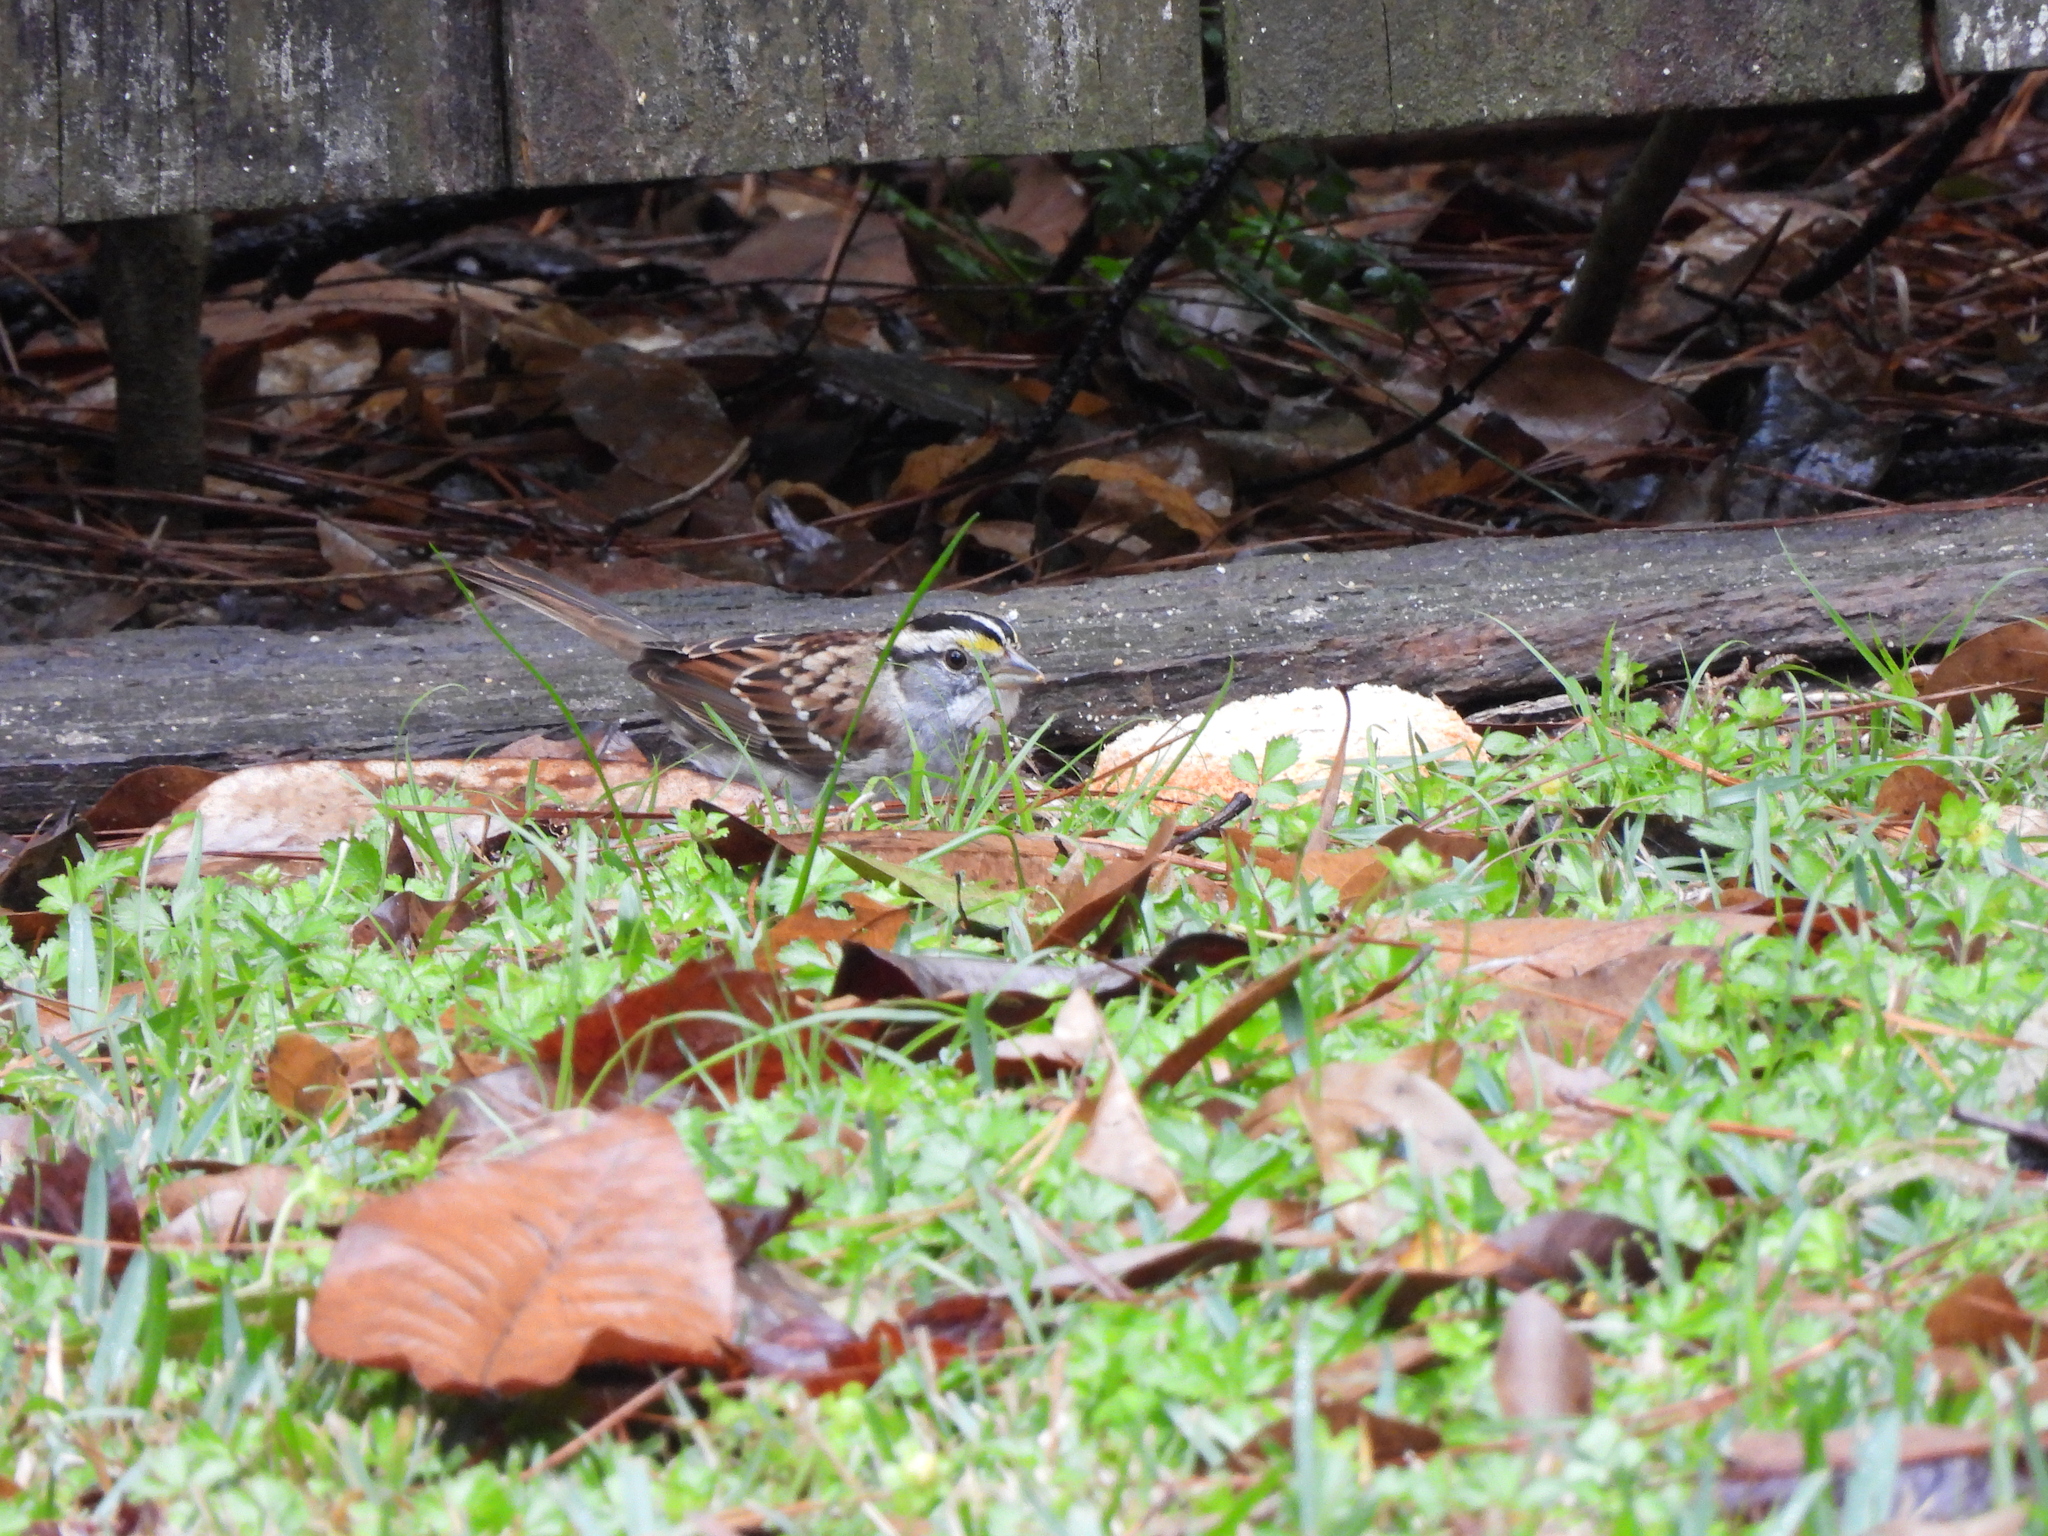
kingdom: Animalia
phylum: Chordata
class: Aves
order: Passeriformes
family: Passerellidae
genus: Zonotrichia
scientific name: Zonotrichia albicollis
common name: White-throated sparrow
